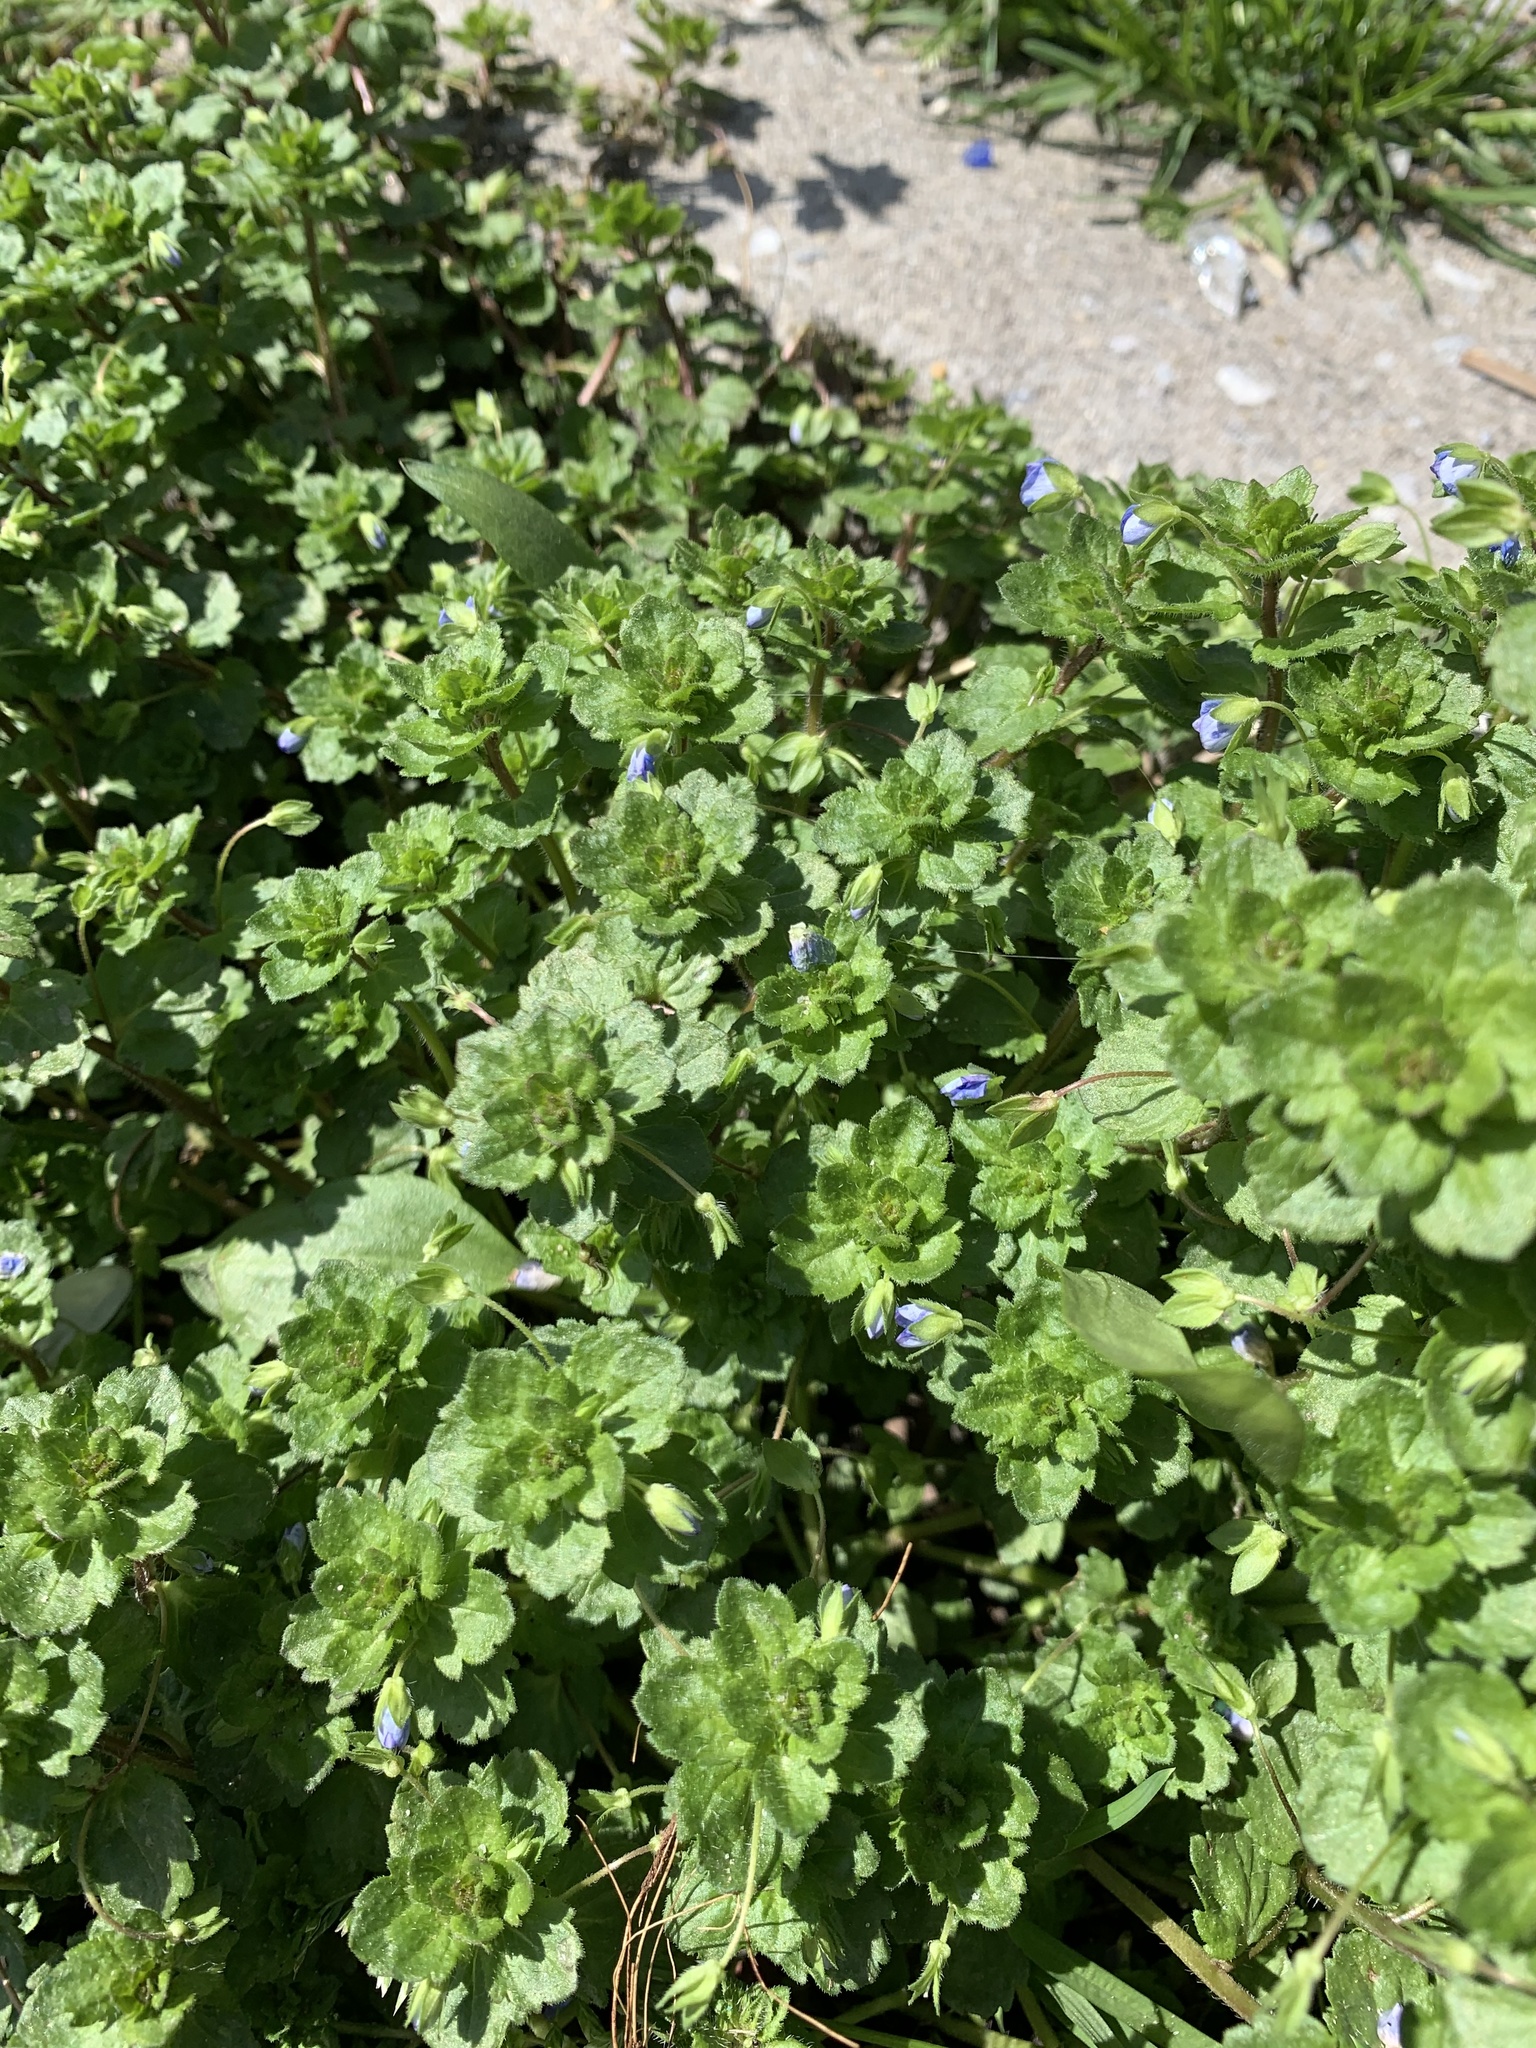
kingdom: Plantae
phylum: Tracheophyta
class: Magnoliopsida
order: Lamiales
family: Plantaginaceae
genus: Veronica
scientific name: Veronica persica
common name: Common field-speedwell
